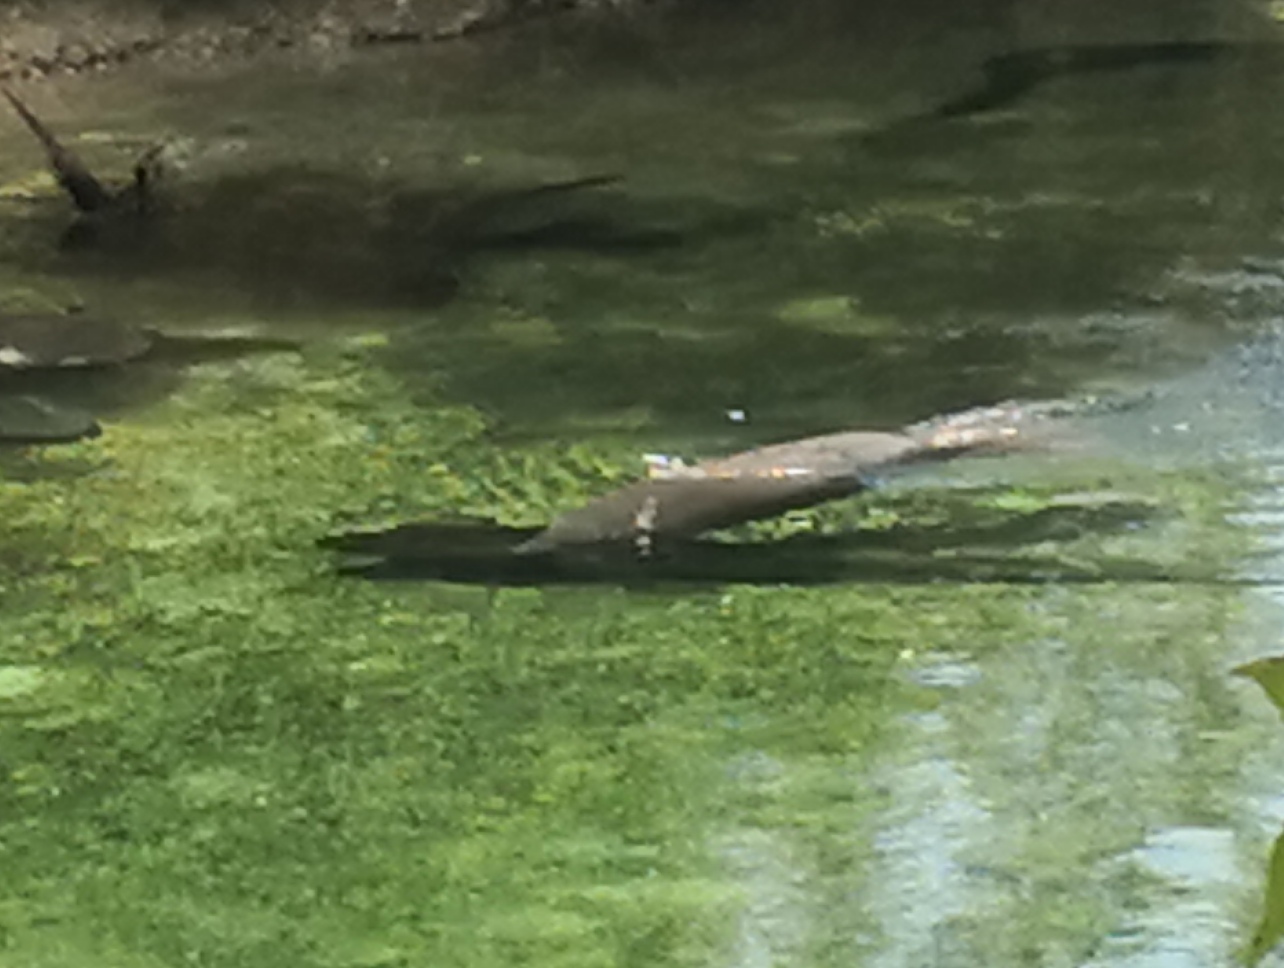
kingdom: Animalia
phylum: Chordata
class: Mammalia
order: Sirenia
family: Trichechidae
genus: Trichechus
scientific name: Trichechus manatus
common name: West indian manatee
